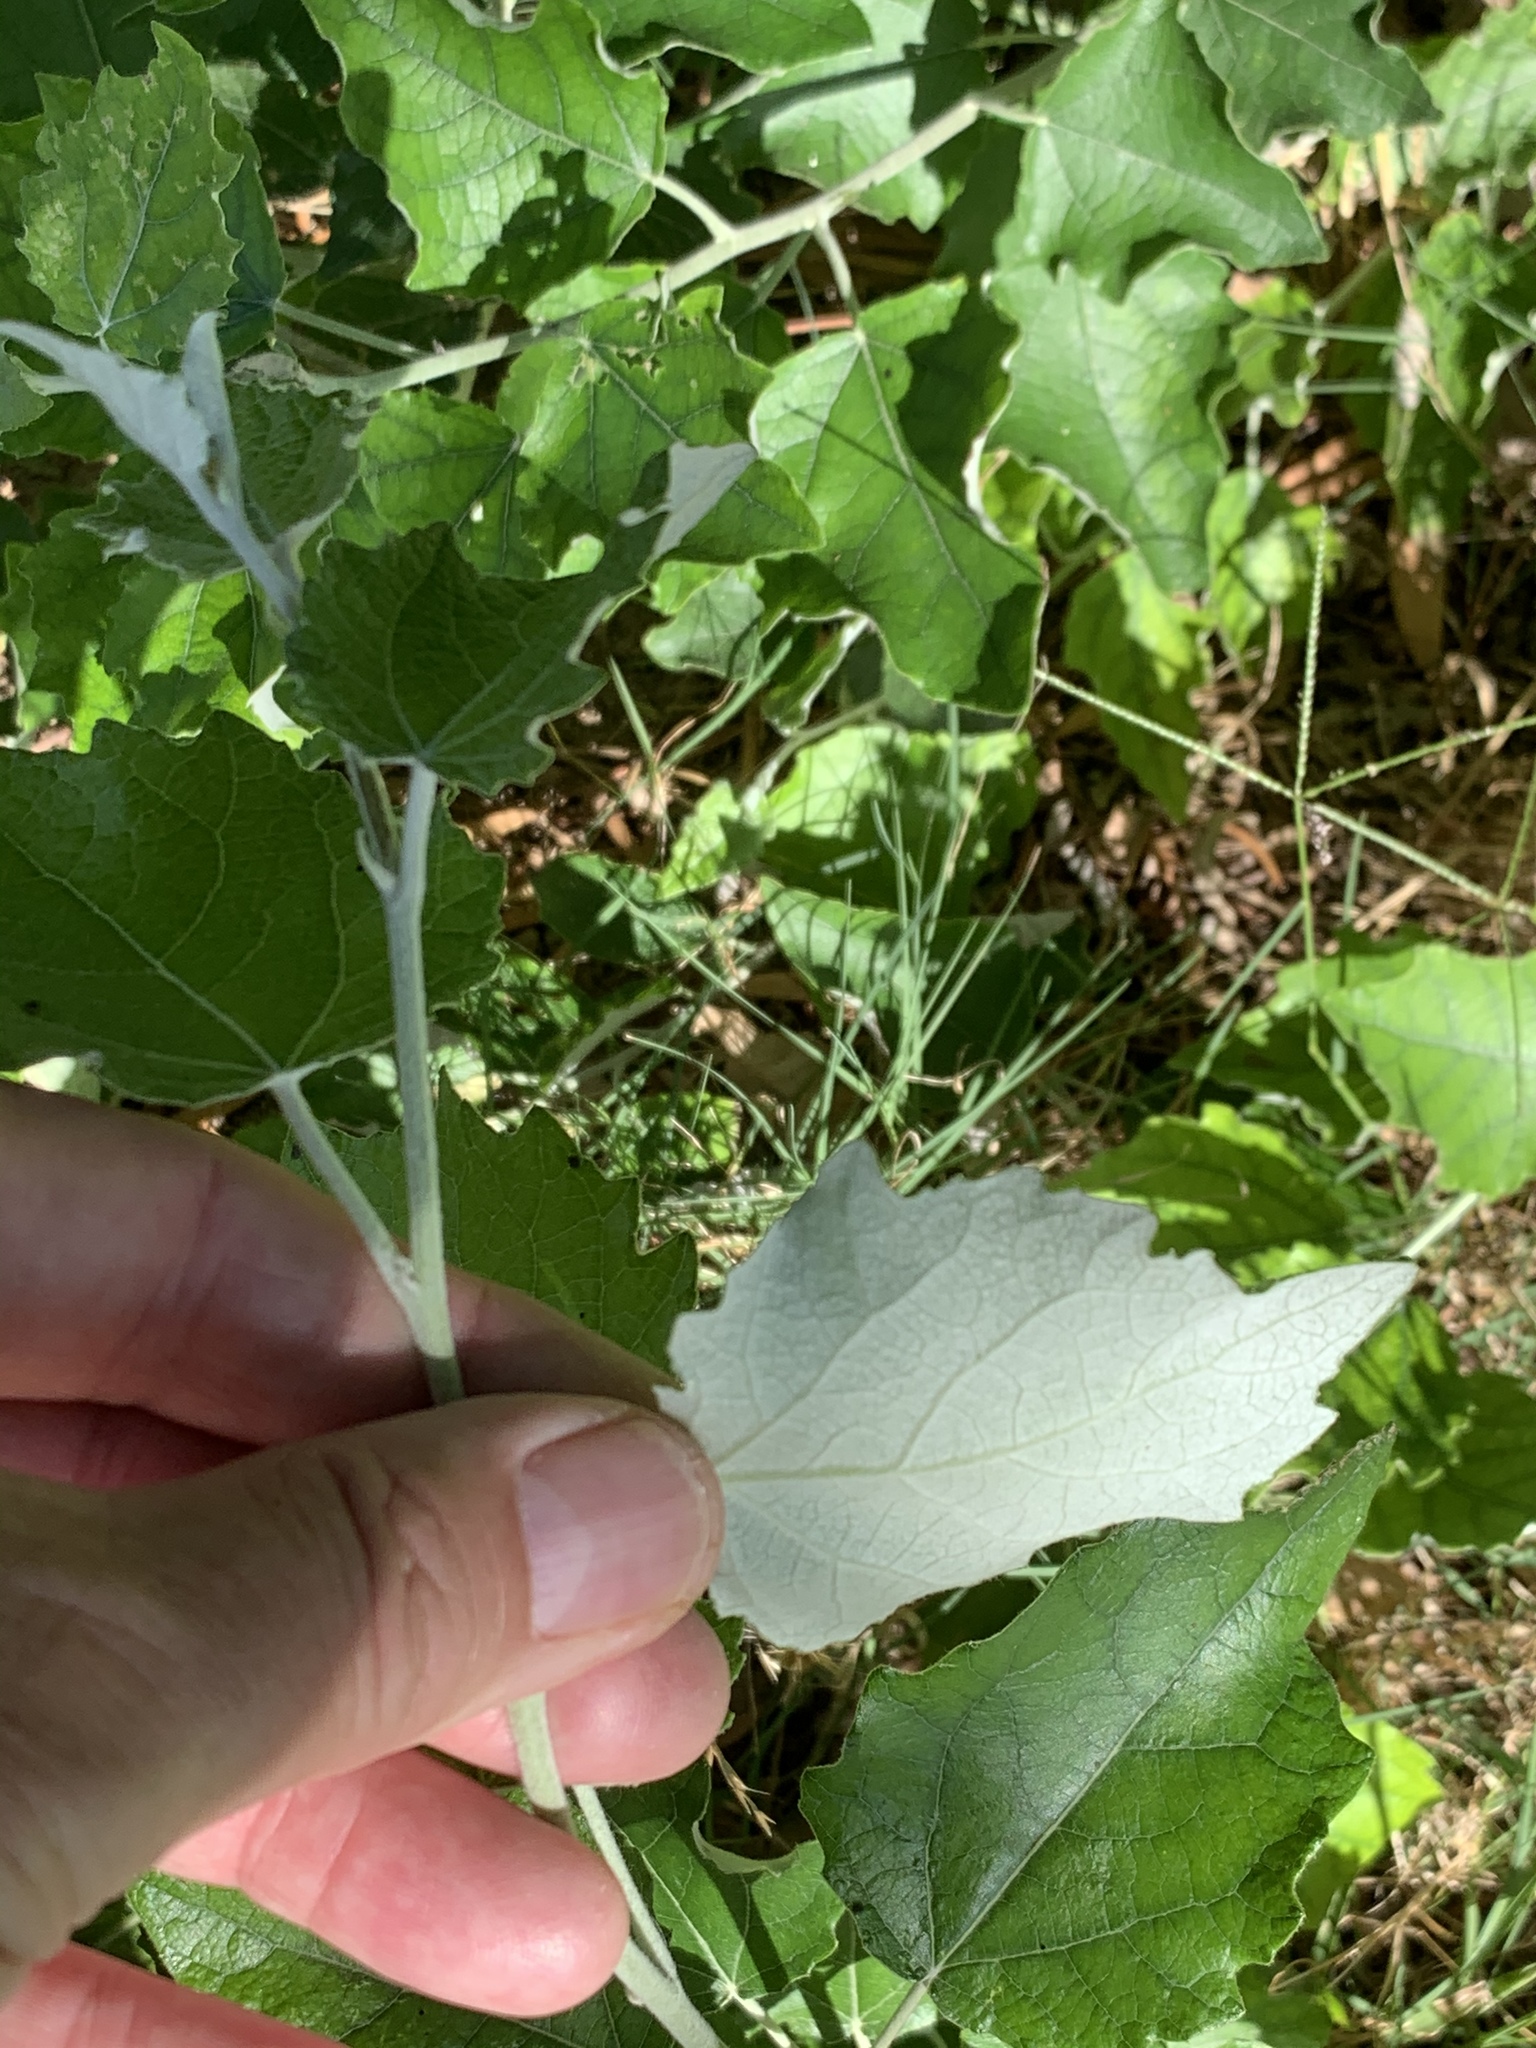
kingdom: Plantae
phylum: Tracheophyta
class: Magnoliopsida
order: Malpighiales
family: Salicaceae
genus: Populus
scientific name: Populus canescens
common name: Gray poplar
